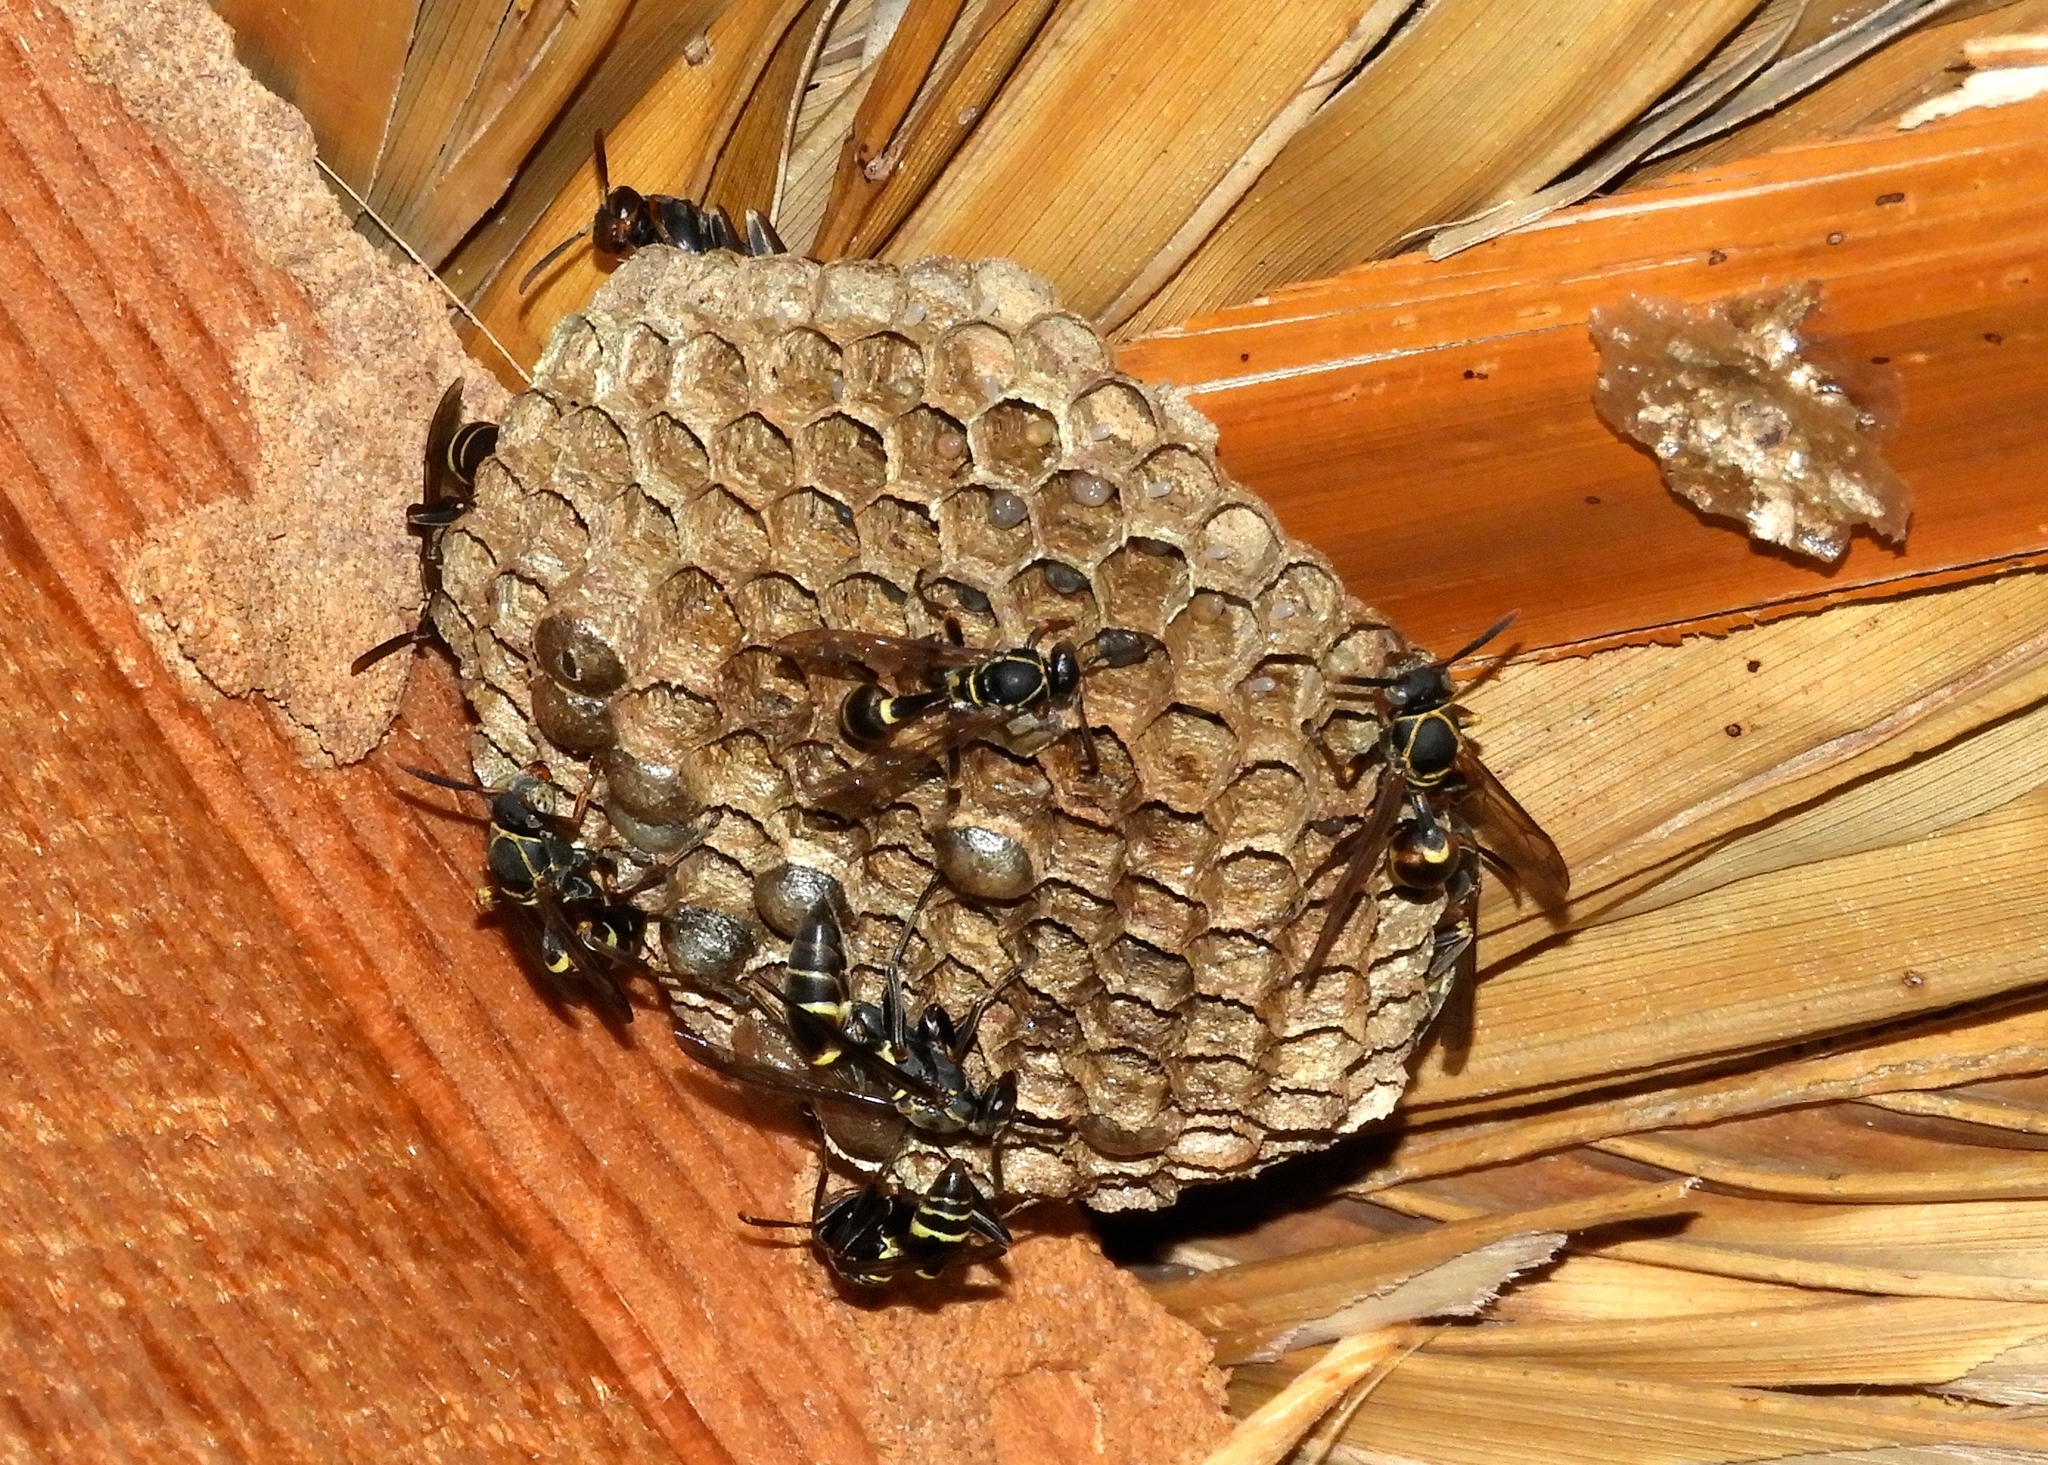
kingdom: Animalia
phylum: Arthropoda
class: Insecta
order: Hymenoptera
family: Vespidae
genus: Mischocyttarus
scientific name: Mischocyttarus rufidens
